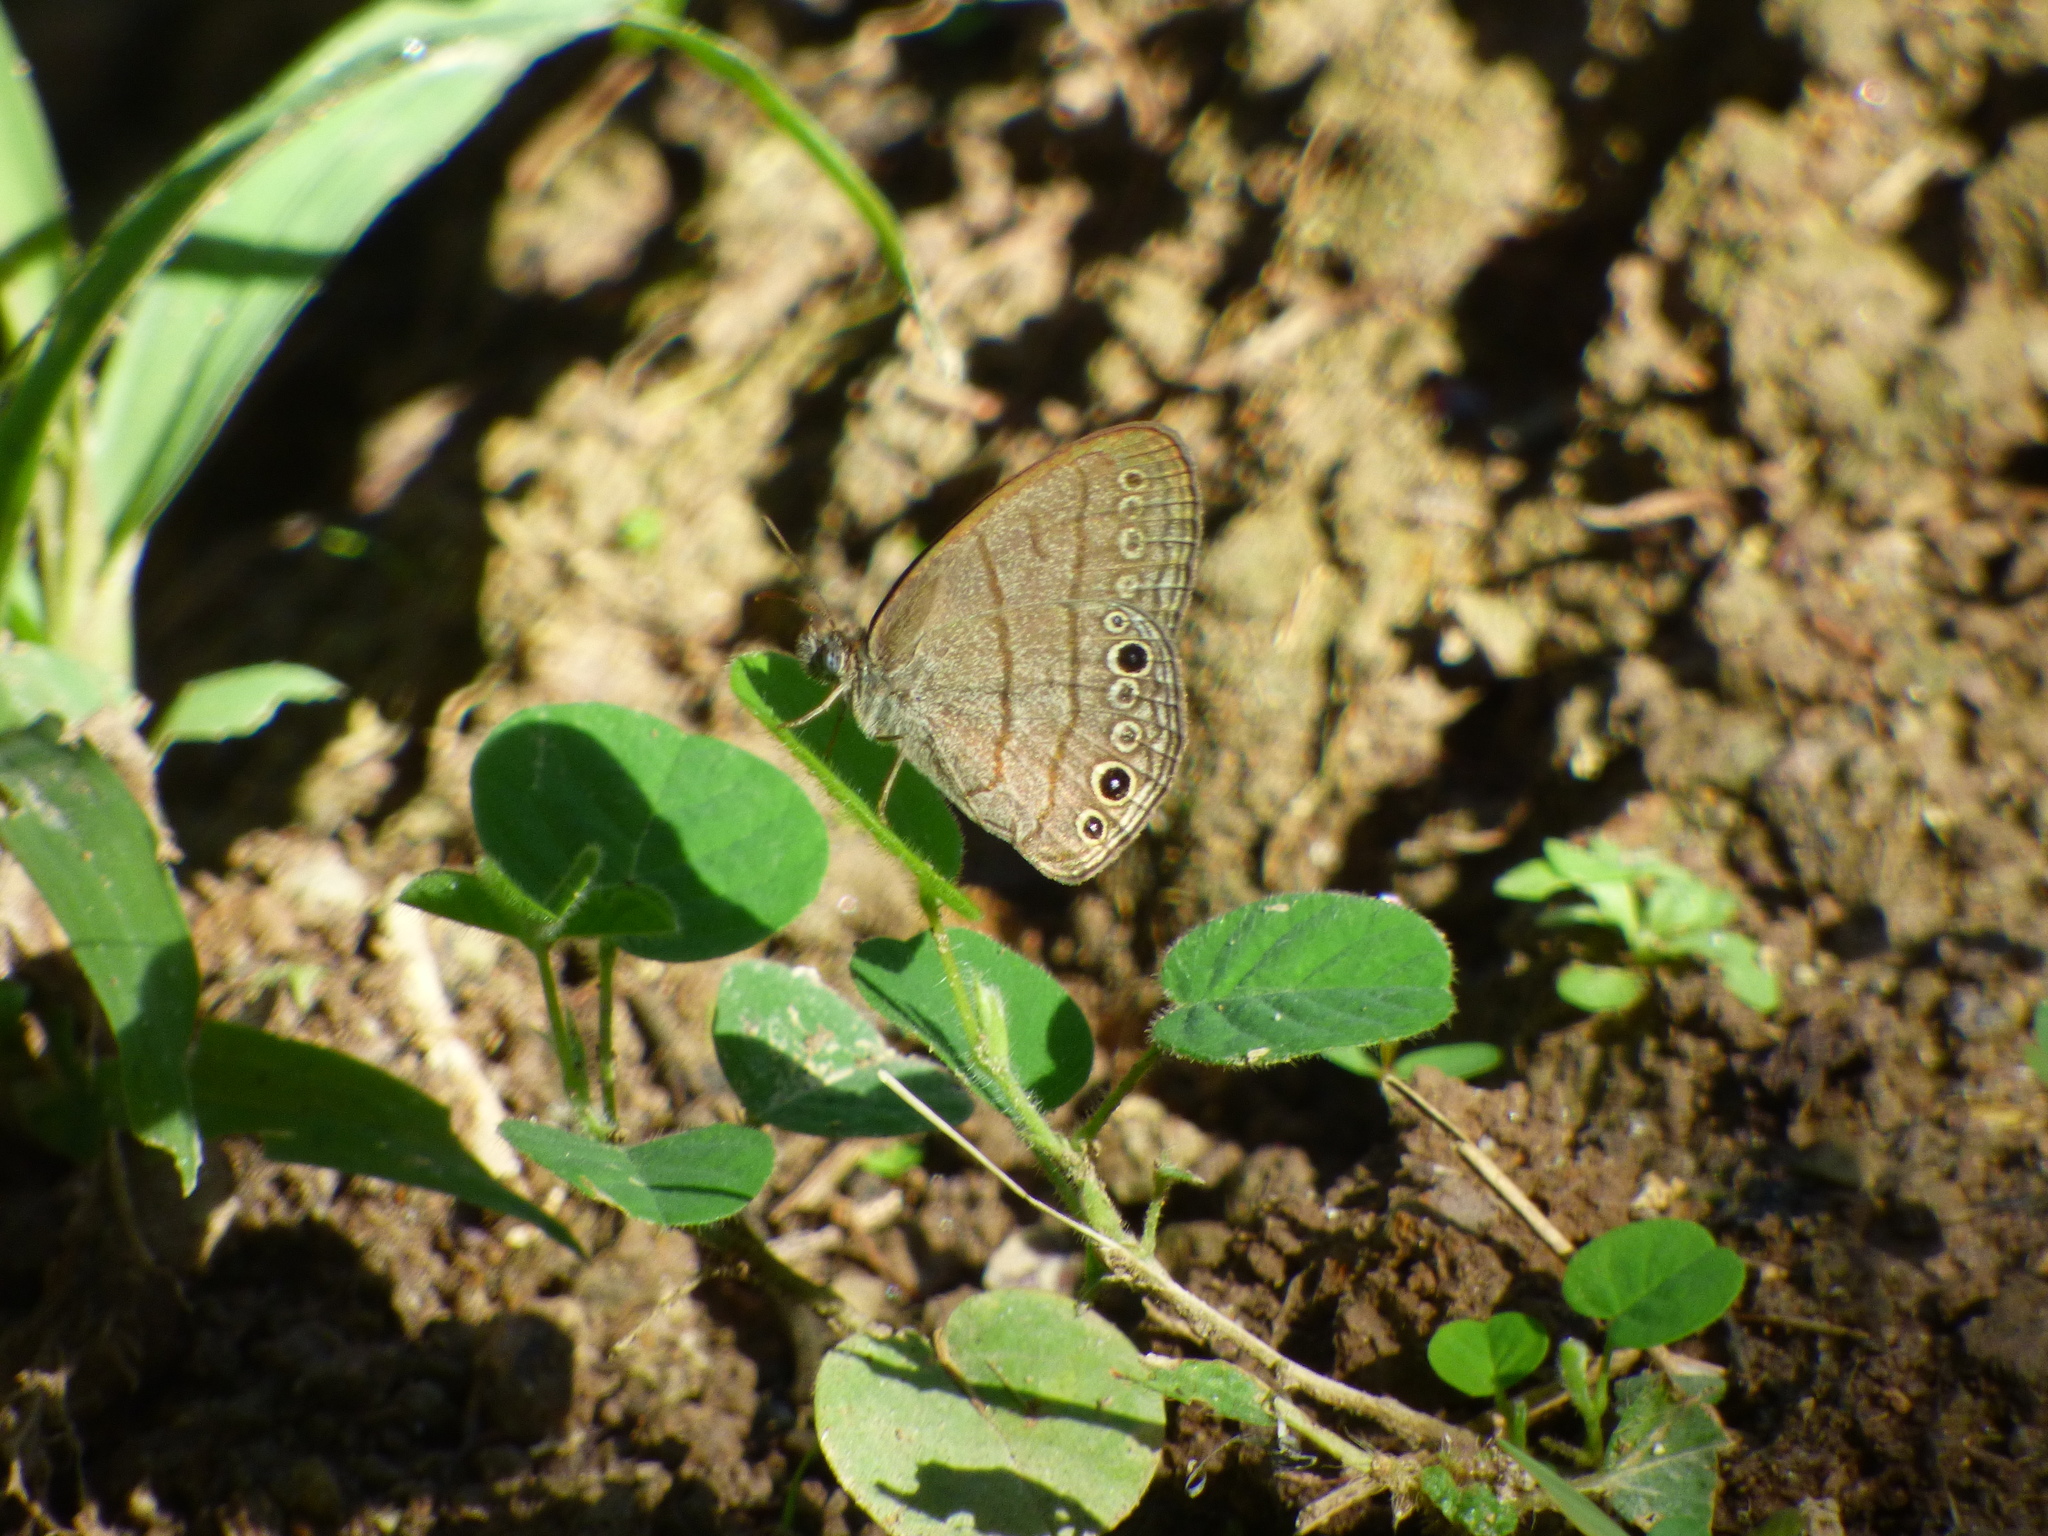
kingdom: Animalia
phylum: Arthropoda
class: Insecta
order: Lepidoptera
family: Nymphalidae
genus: Hermeuptychia
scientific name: Hermeuptychia hermes
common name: Hermes satyr
